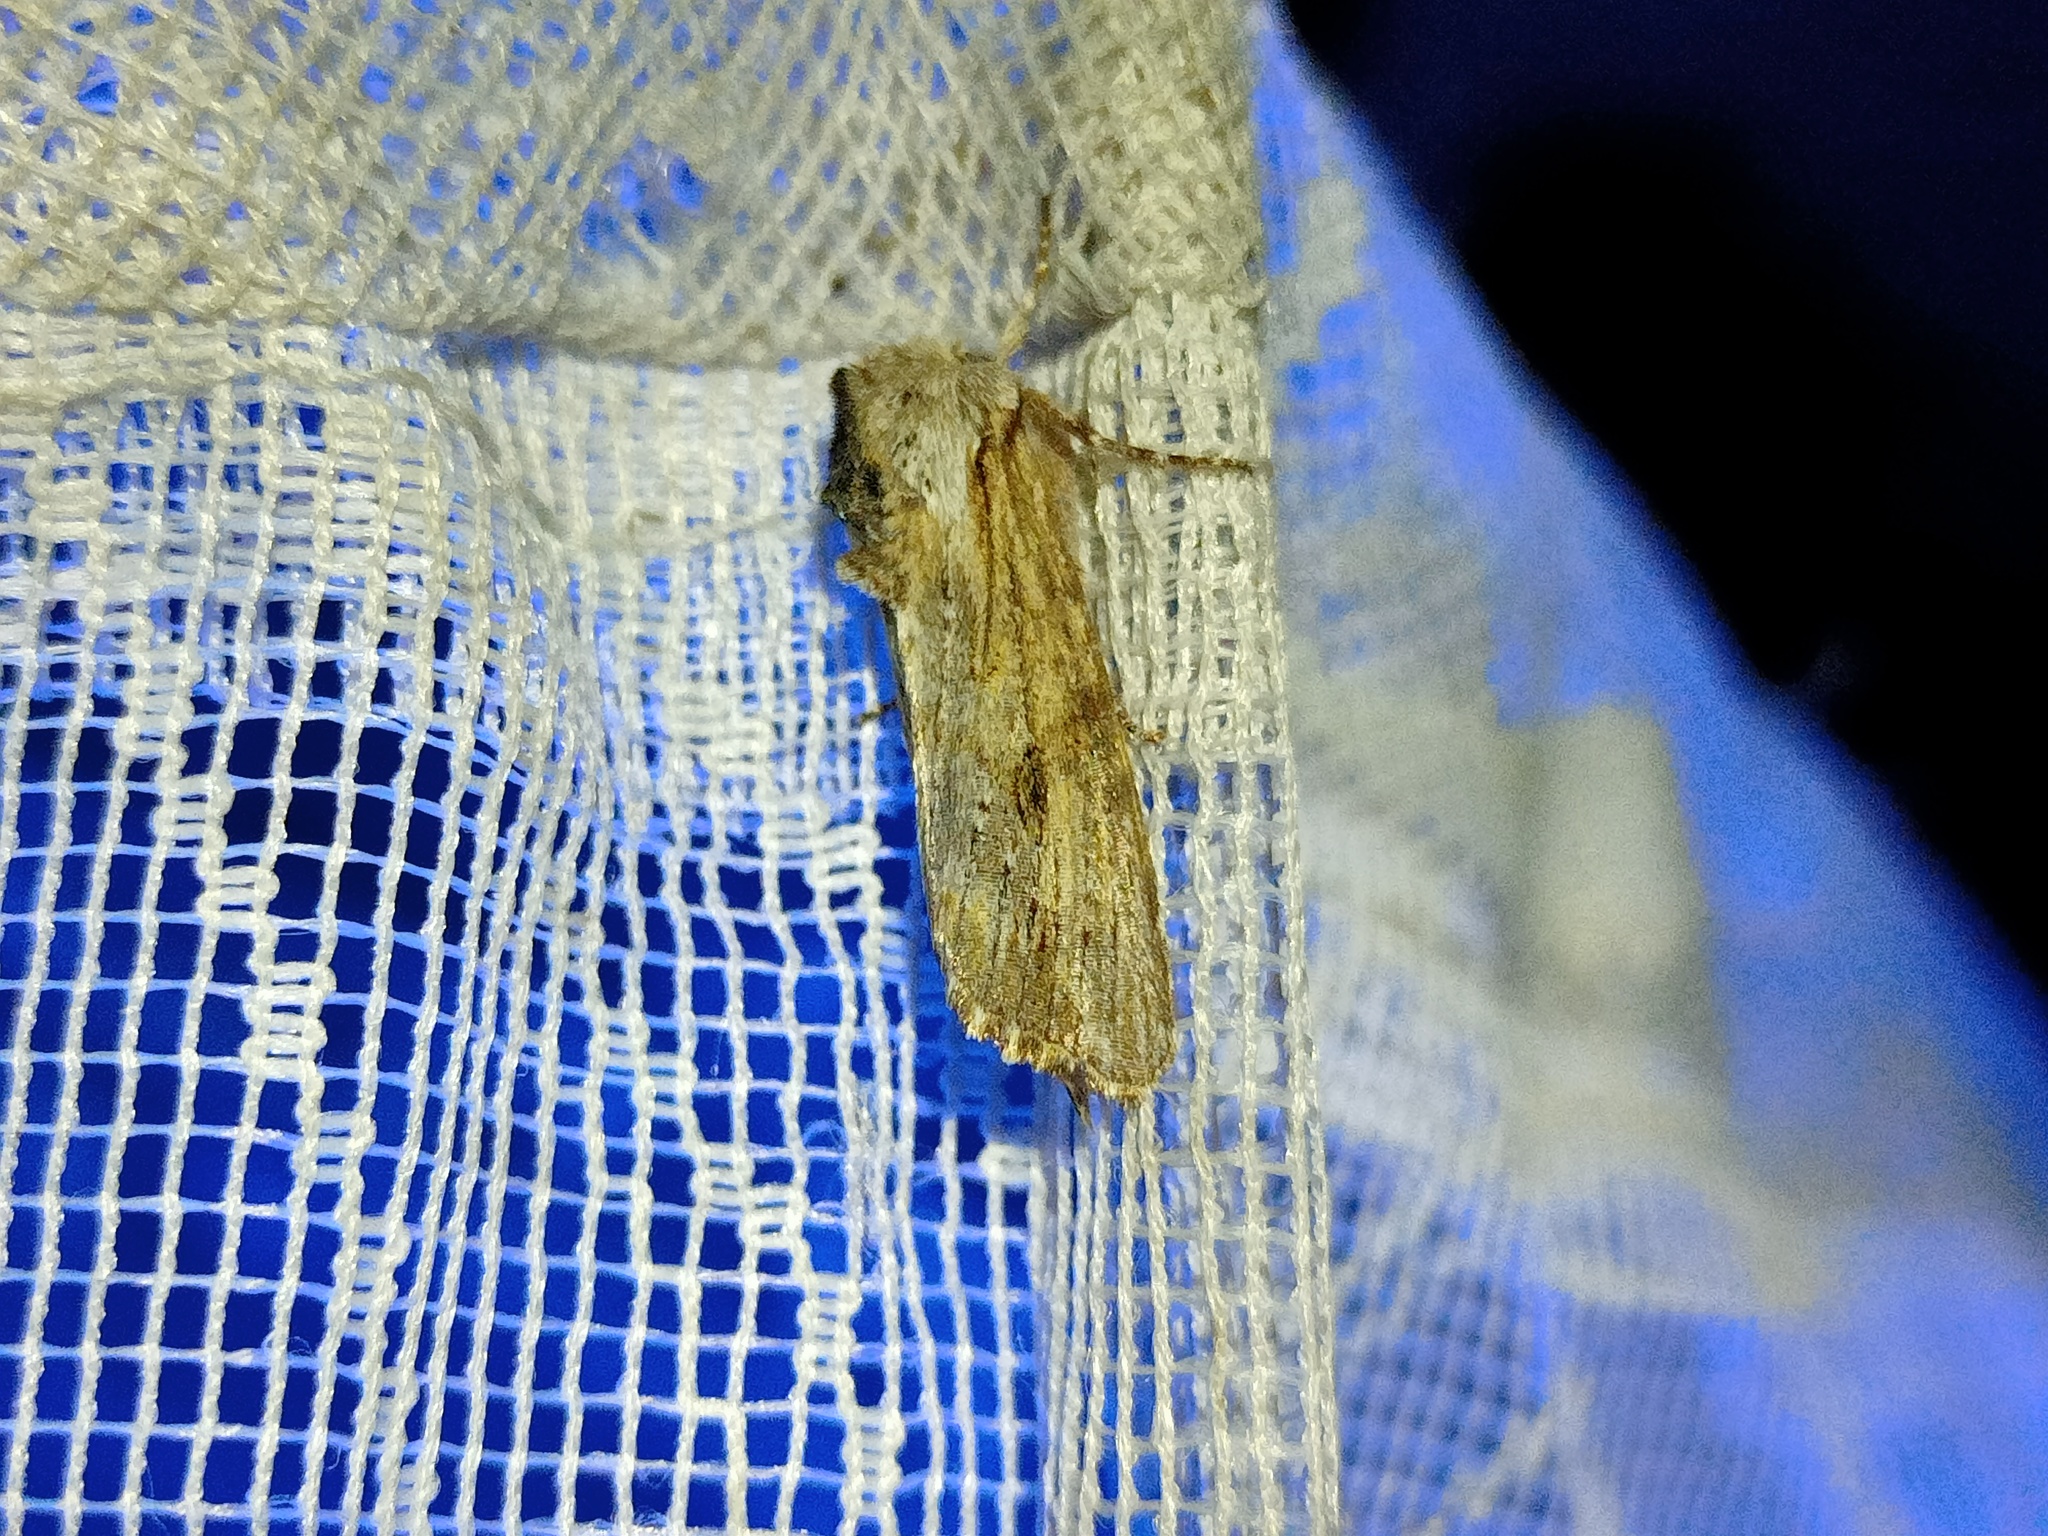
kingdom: Animalia
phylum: Arthropoda
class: Insecta
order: Lepidoptera
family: Noctuidae
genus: Egira
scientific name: Egira conspicillaris
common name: Silver cloud
